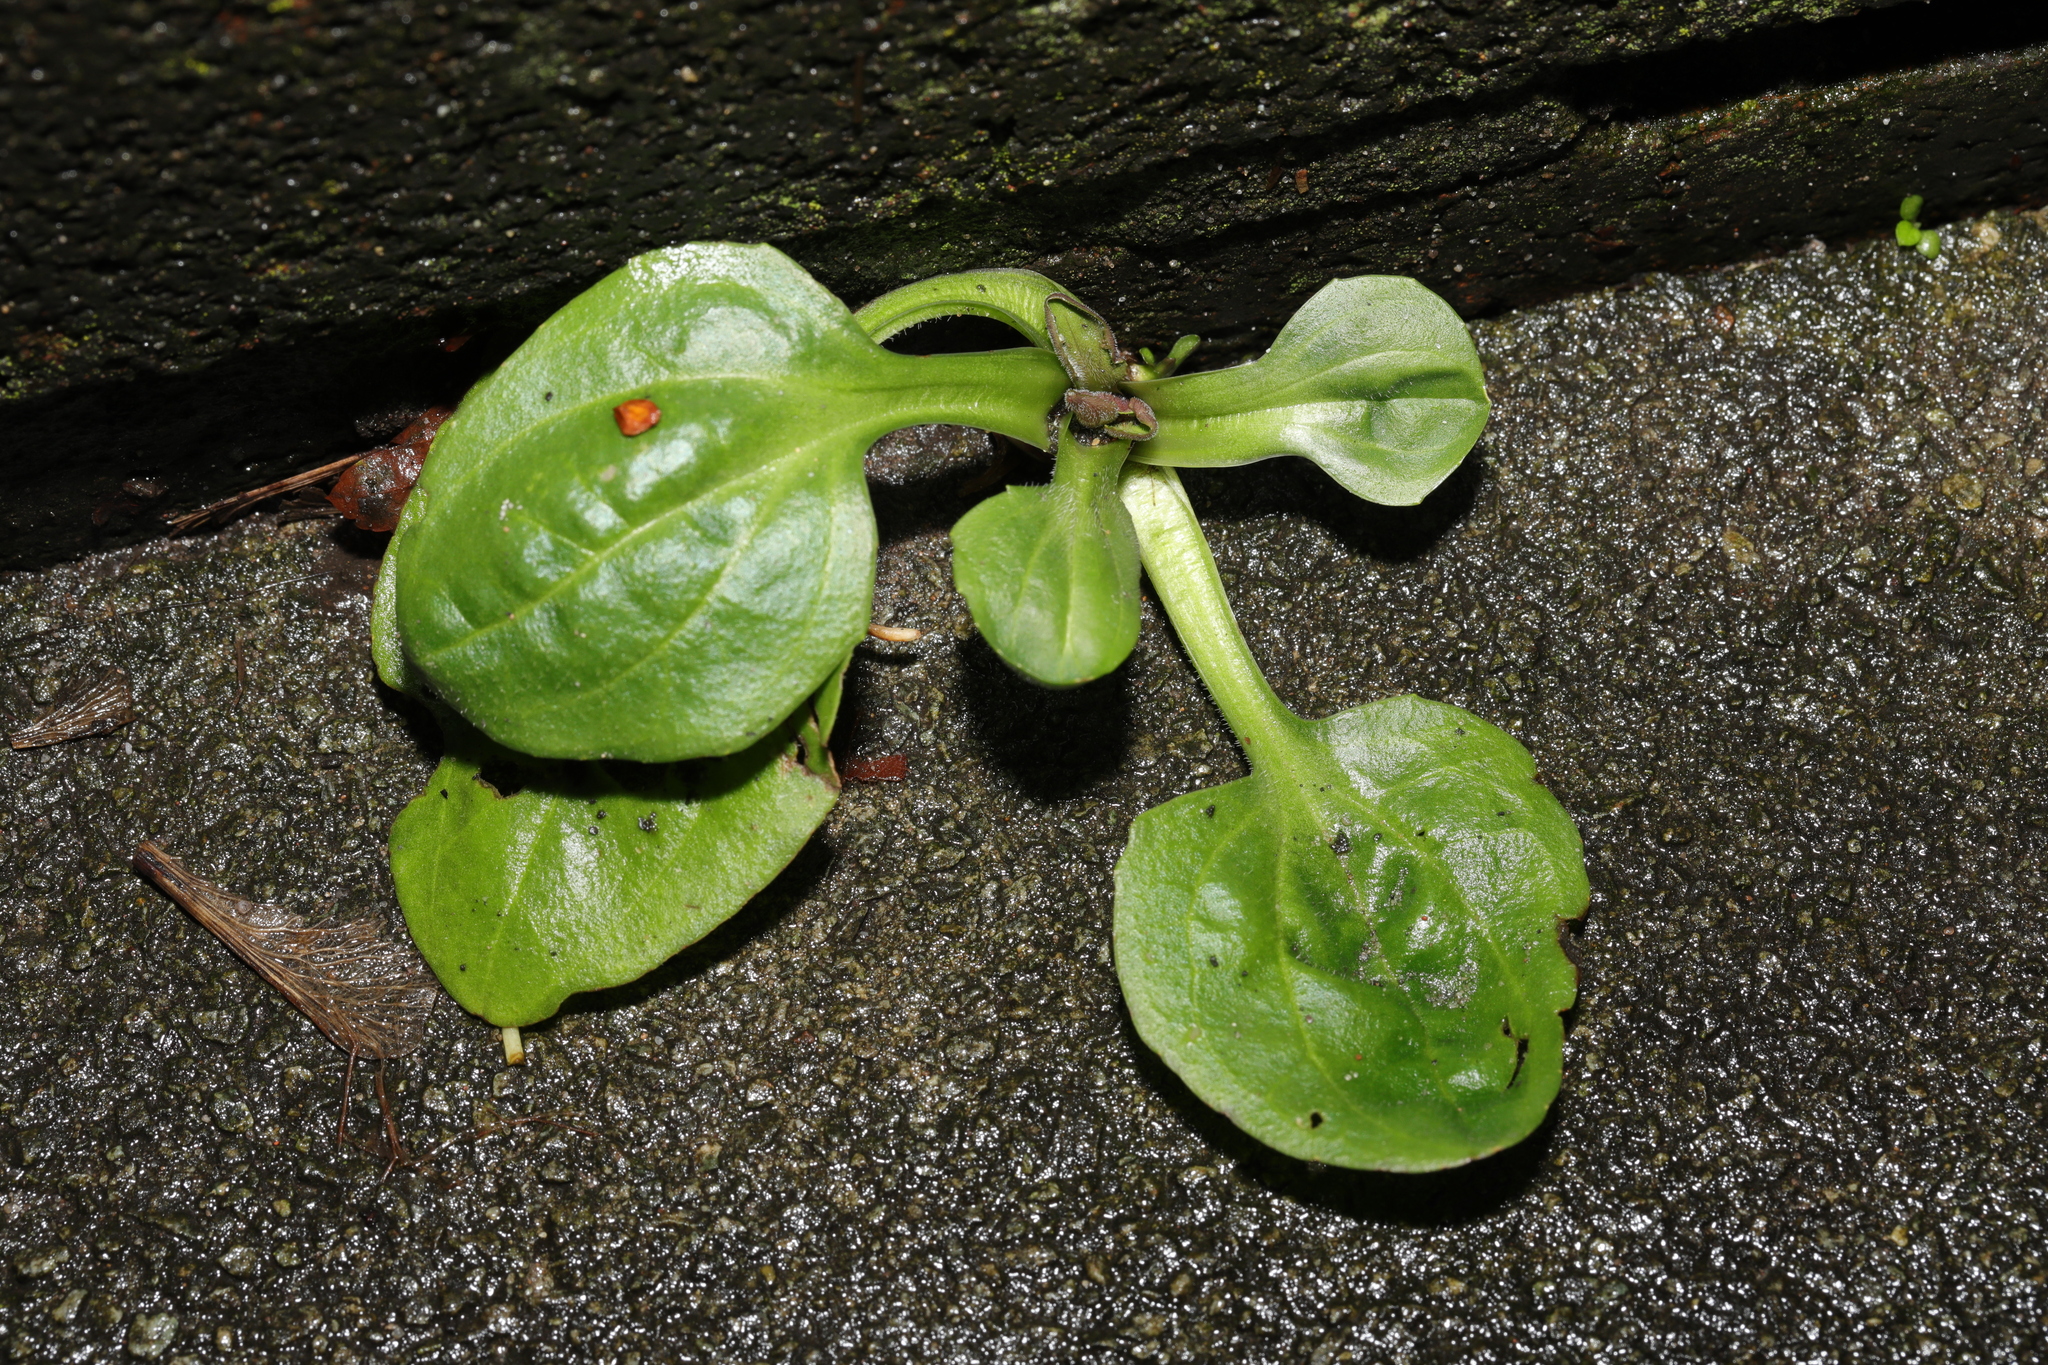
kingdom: Plantae
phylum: Tracheophyta
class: Magnoliopsida
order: Lamiales
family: Plantaginaceae
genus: Plantago
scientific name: Plantago major
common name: Common plantain
